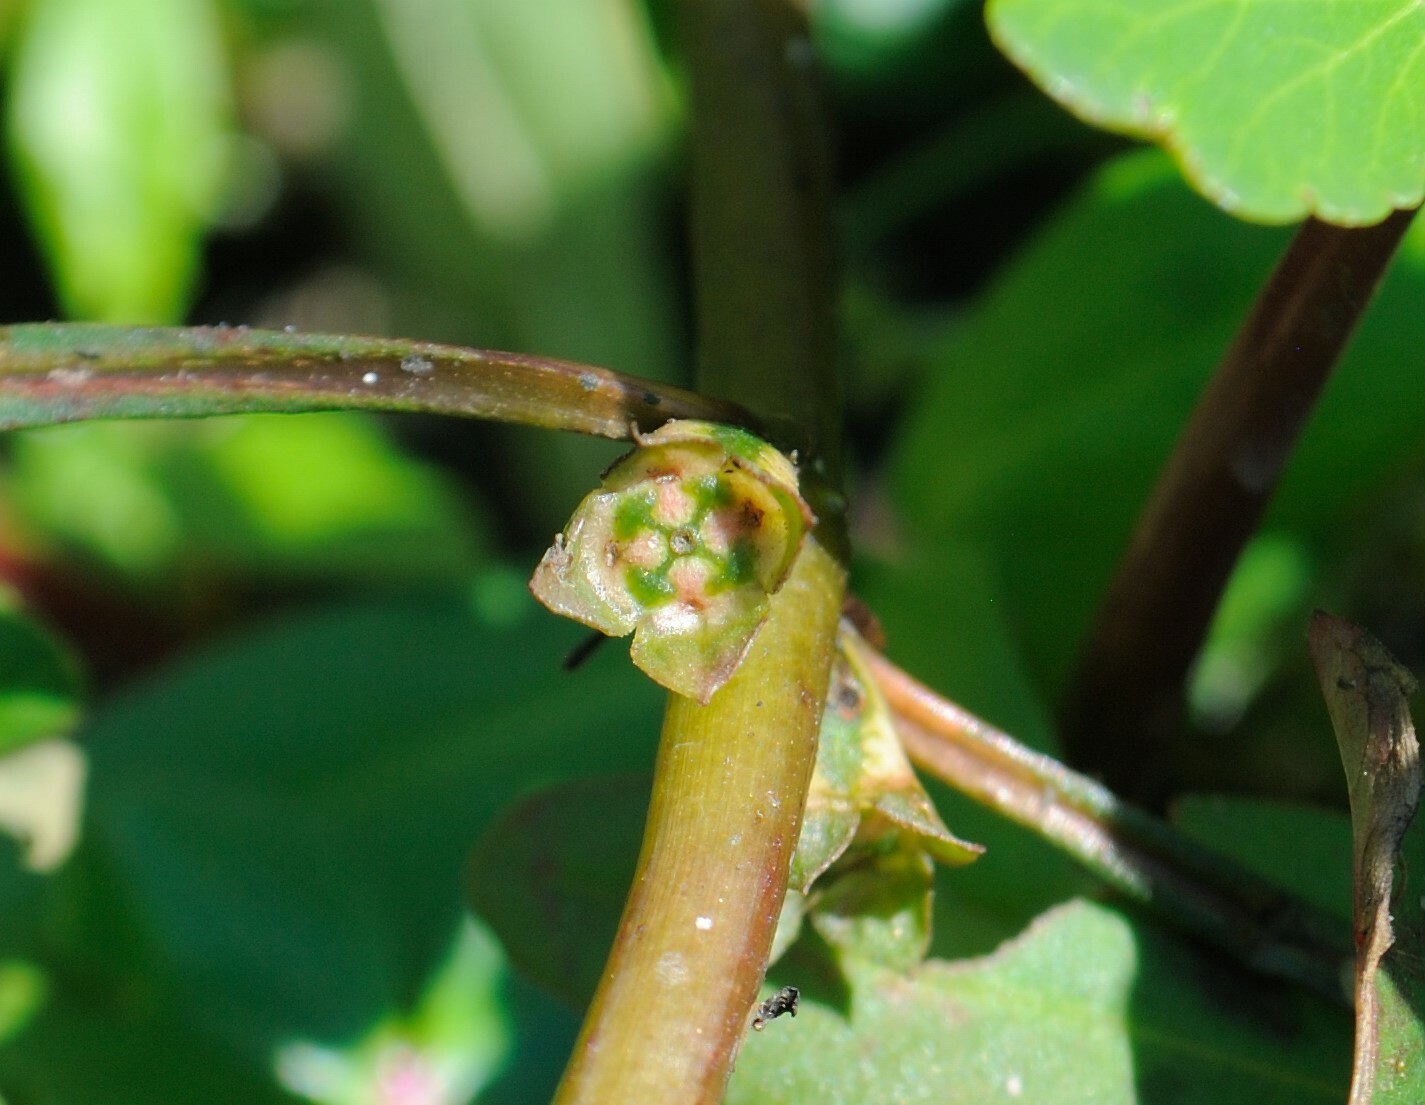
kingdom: Plantae
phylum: Tracheophyta
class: Magnoliopsida
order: Myrtales
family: Onagraceae
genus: Ludwigia
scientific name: Ludwigia palustris
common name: Hampshire-purslane
